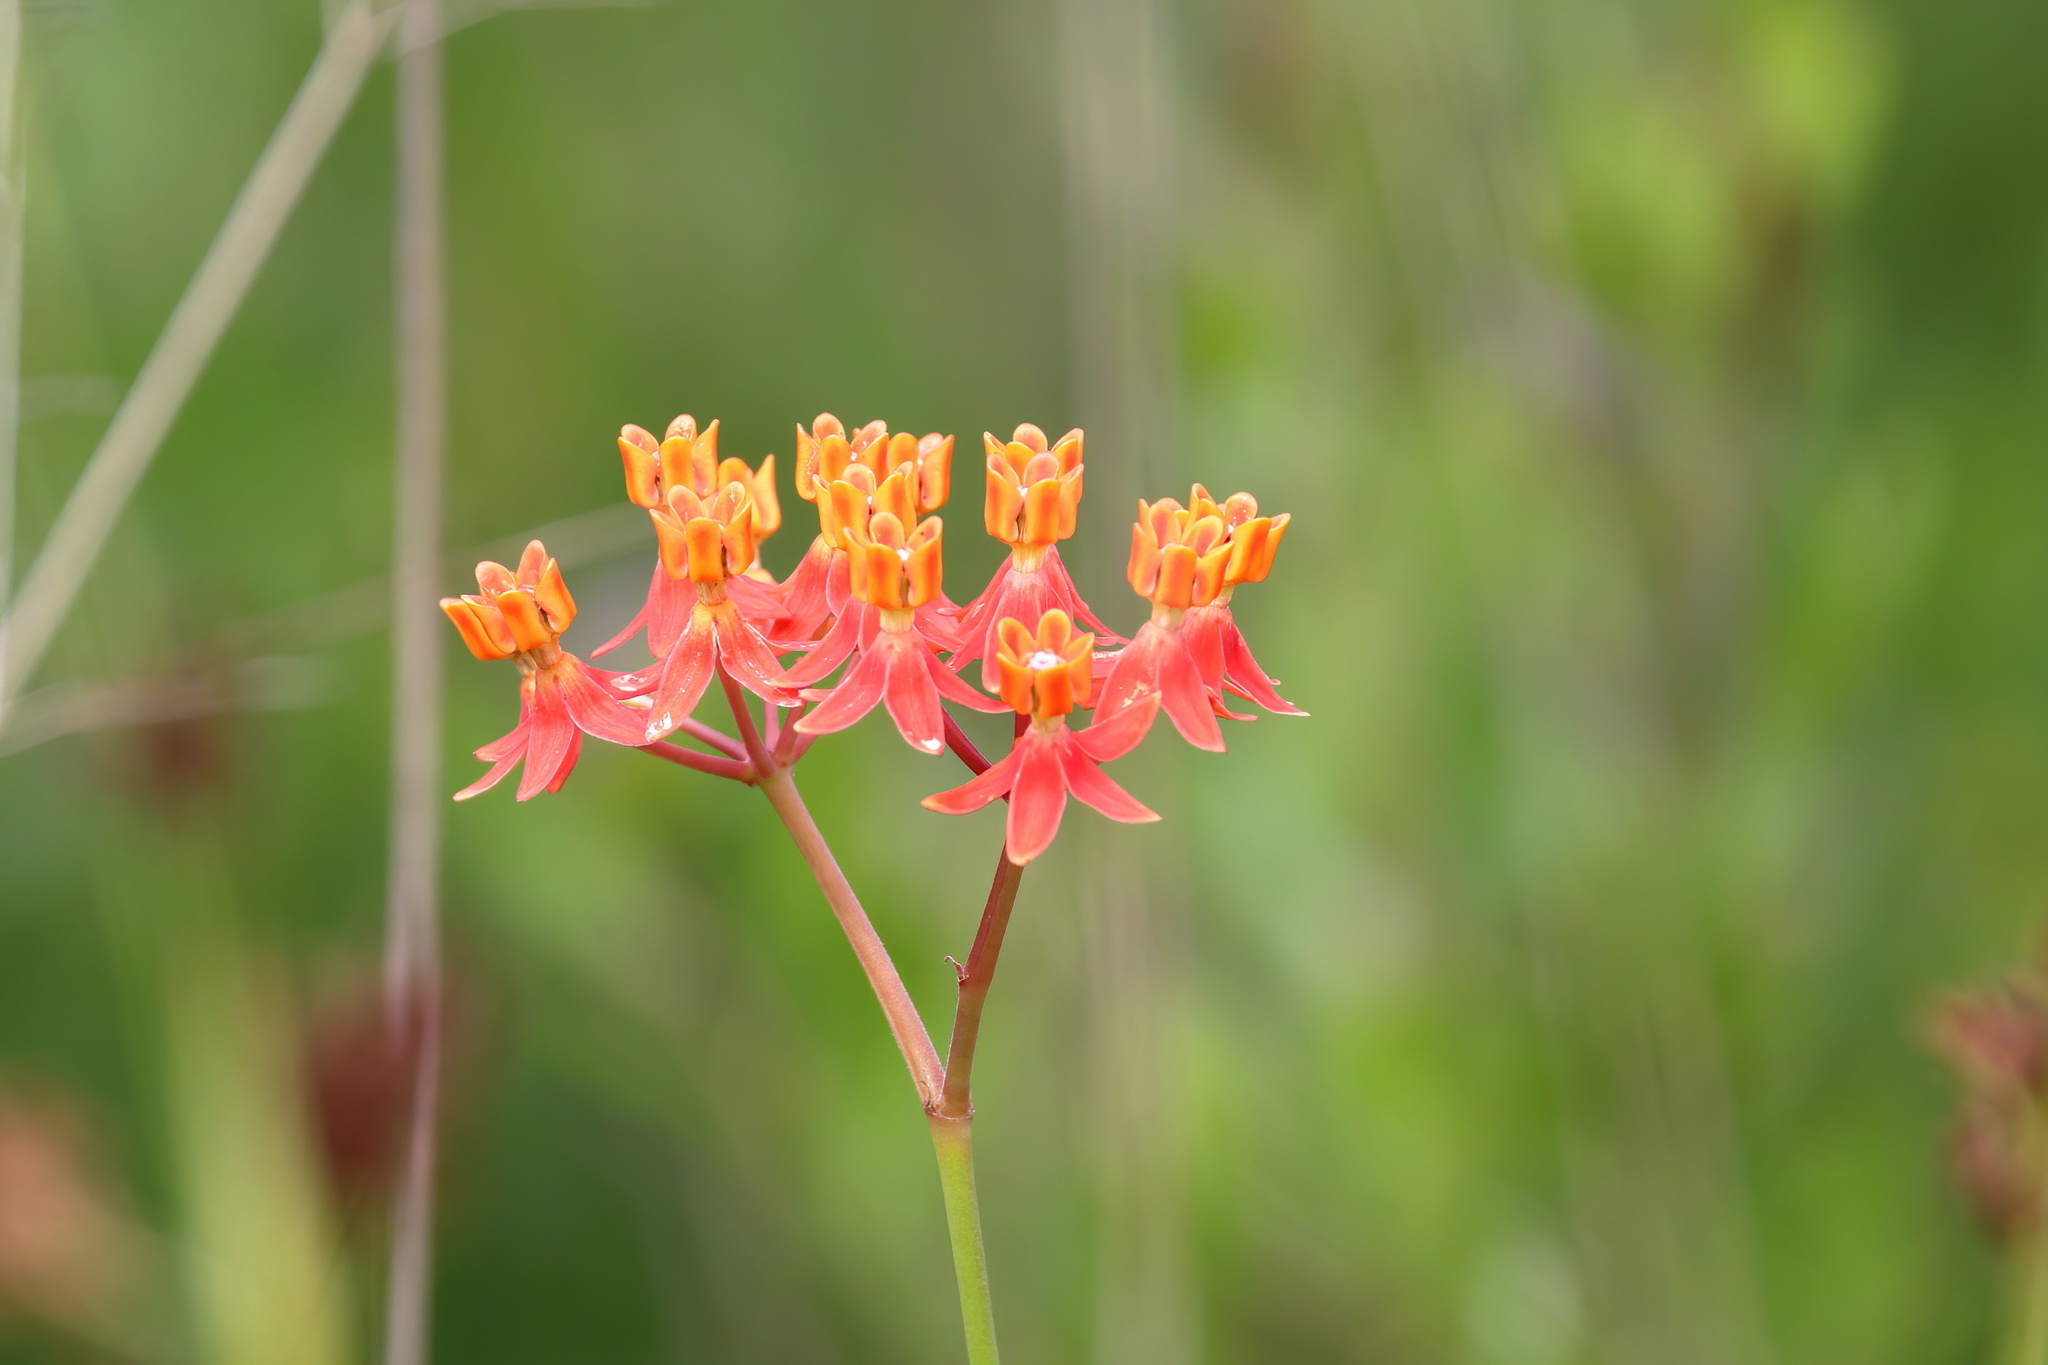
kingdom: Plantae
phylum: Tracheophyta
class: Magnoliopsida
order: Gentianales
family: Apocynaceae
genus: Asclepias
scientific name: Asclepias lanceolata
